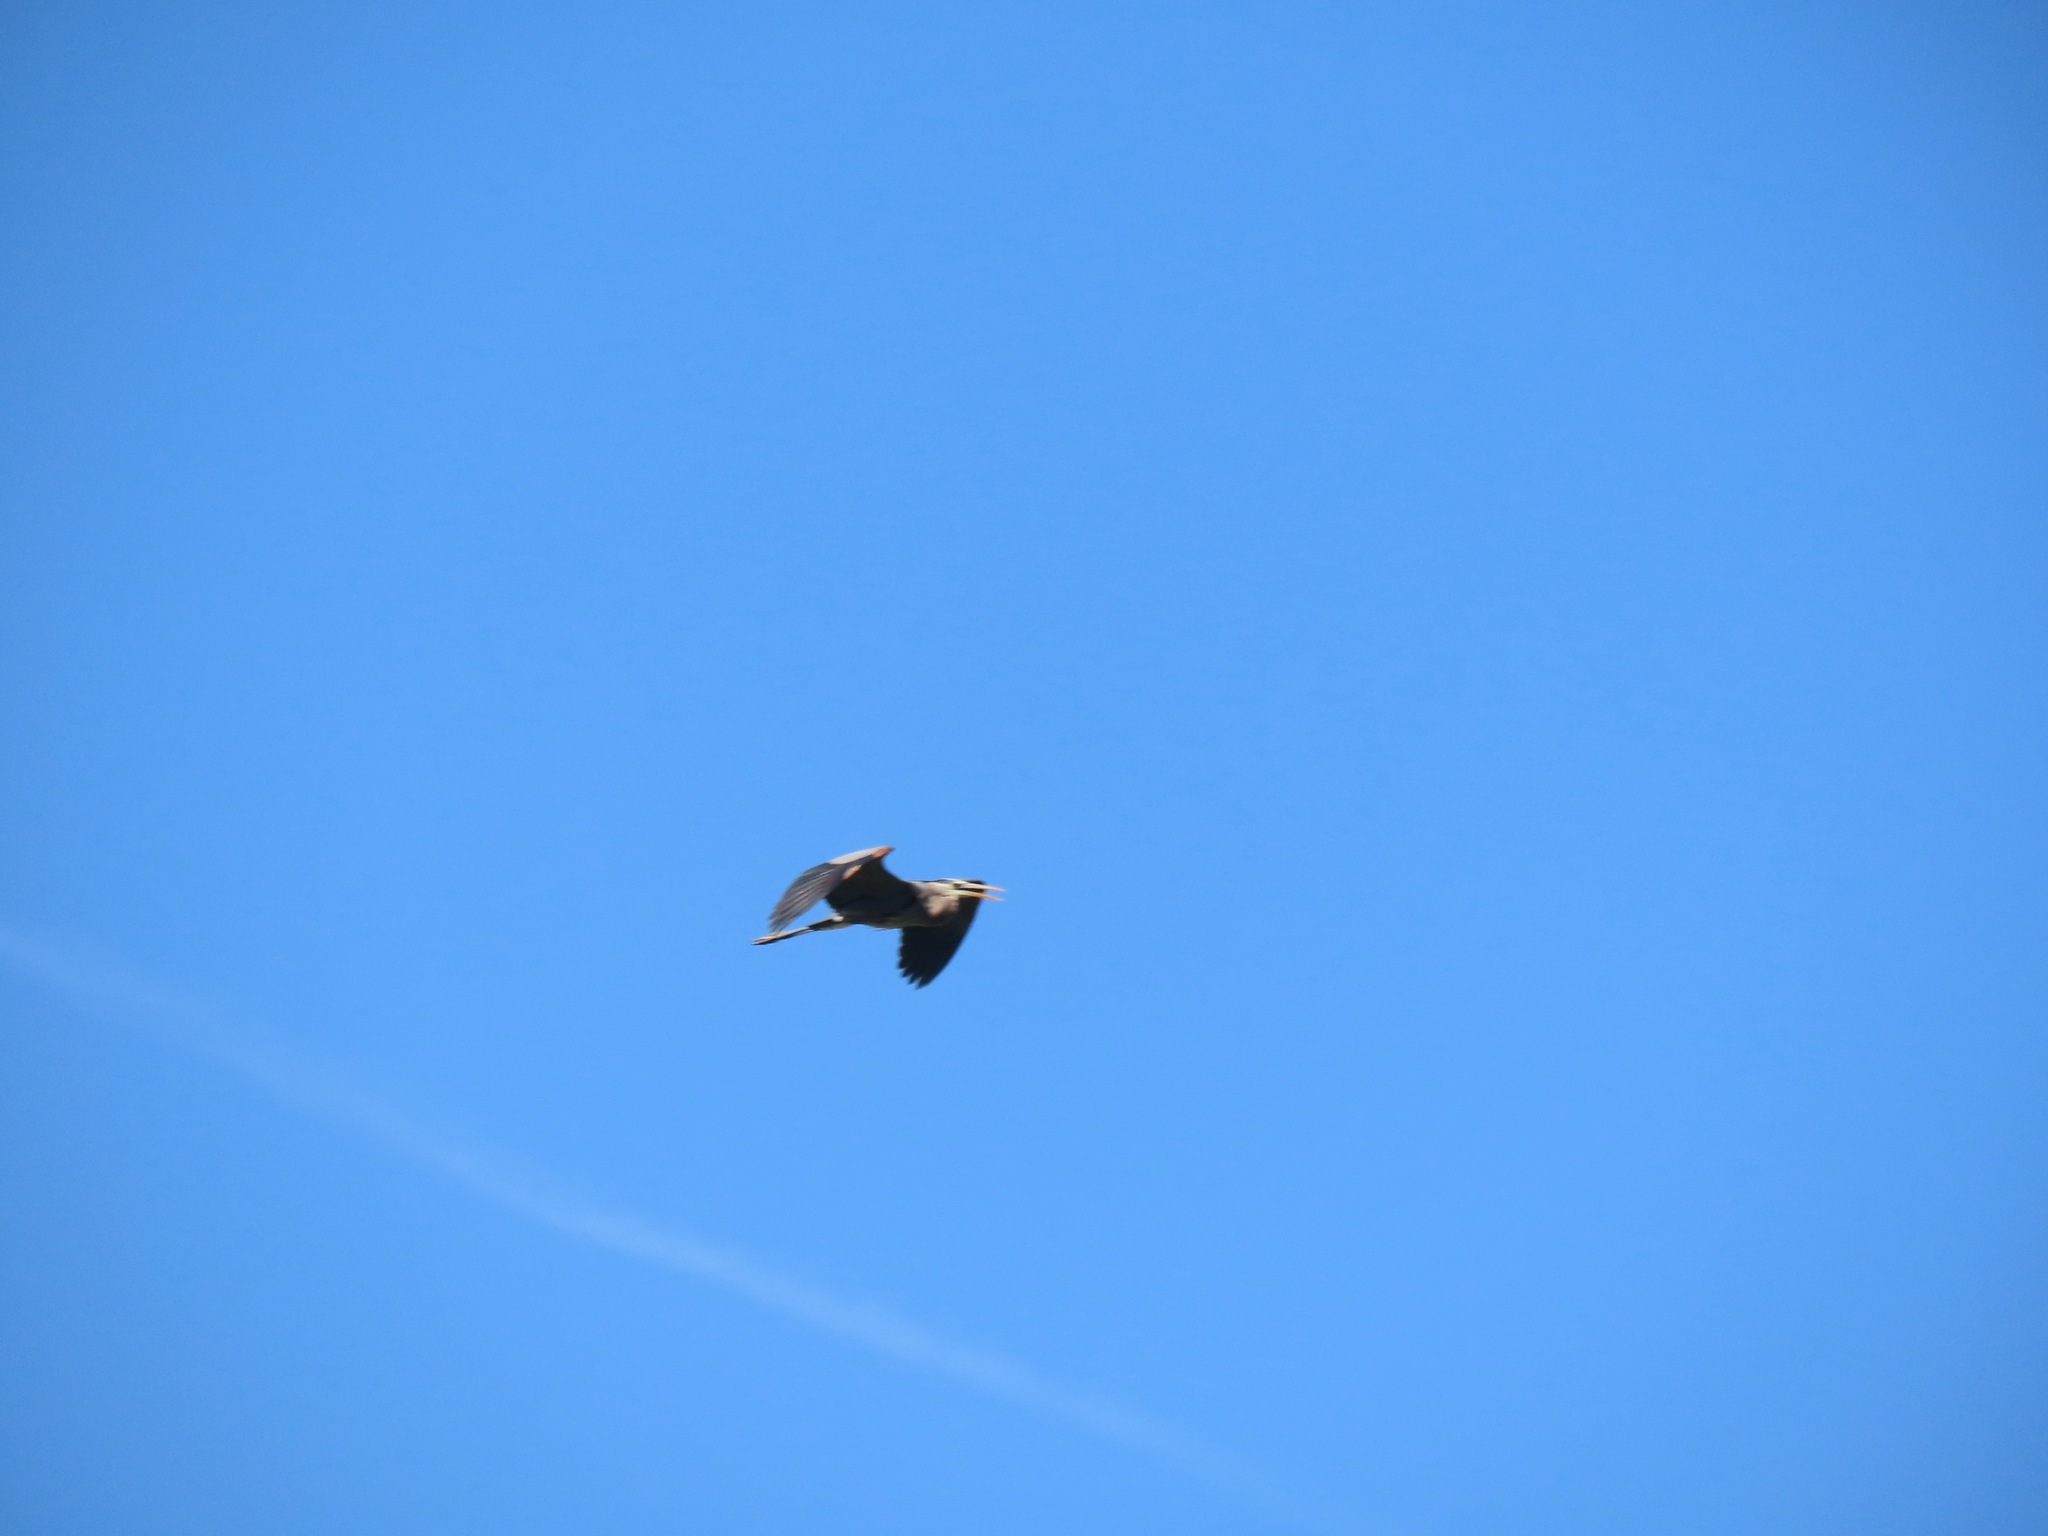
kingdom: Animalia
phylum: Chordata
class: Aves
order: Pelecaniformes
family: Ardeidae
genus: Ardea
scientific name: Ardea herodias
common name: Great blue heron
